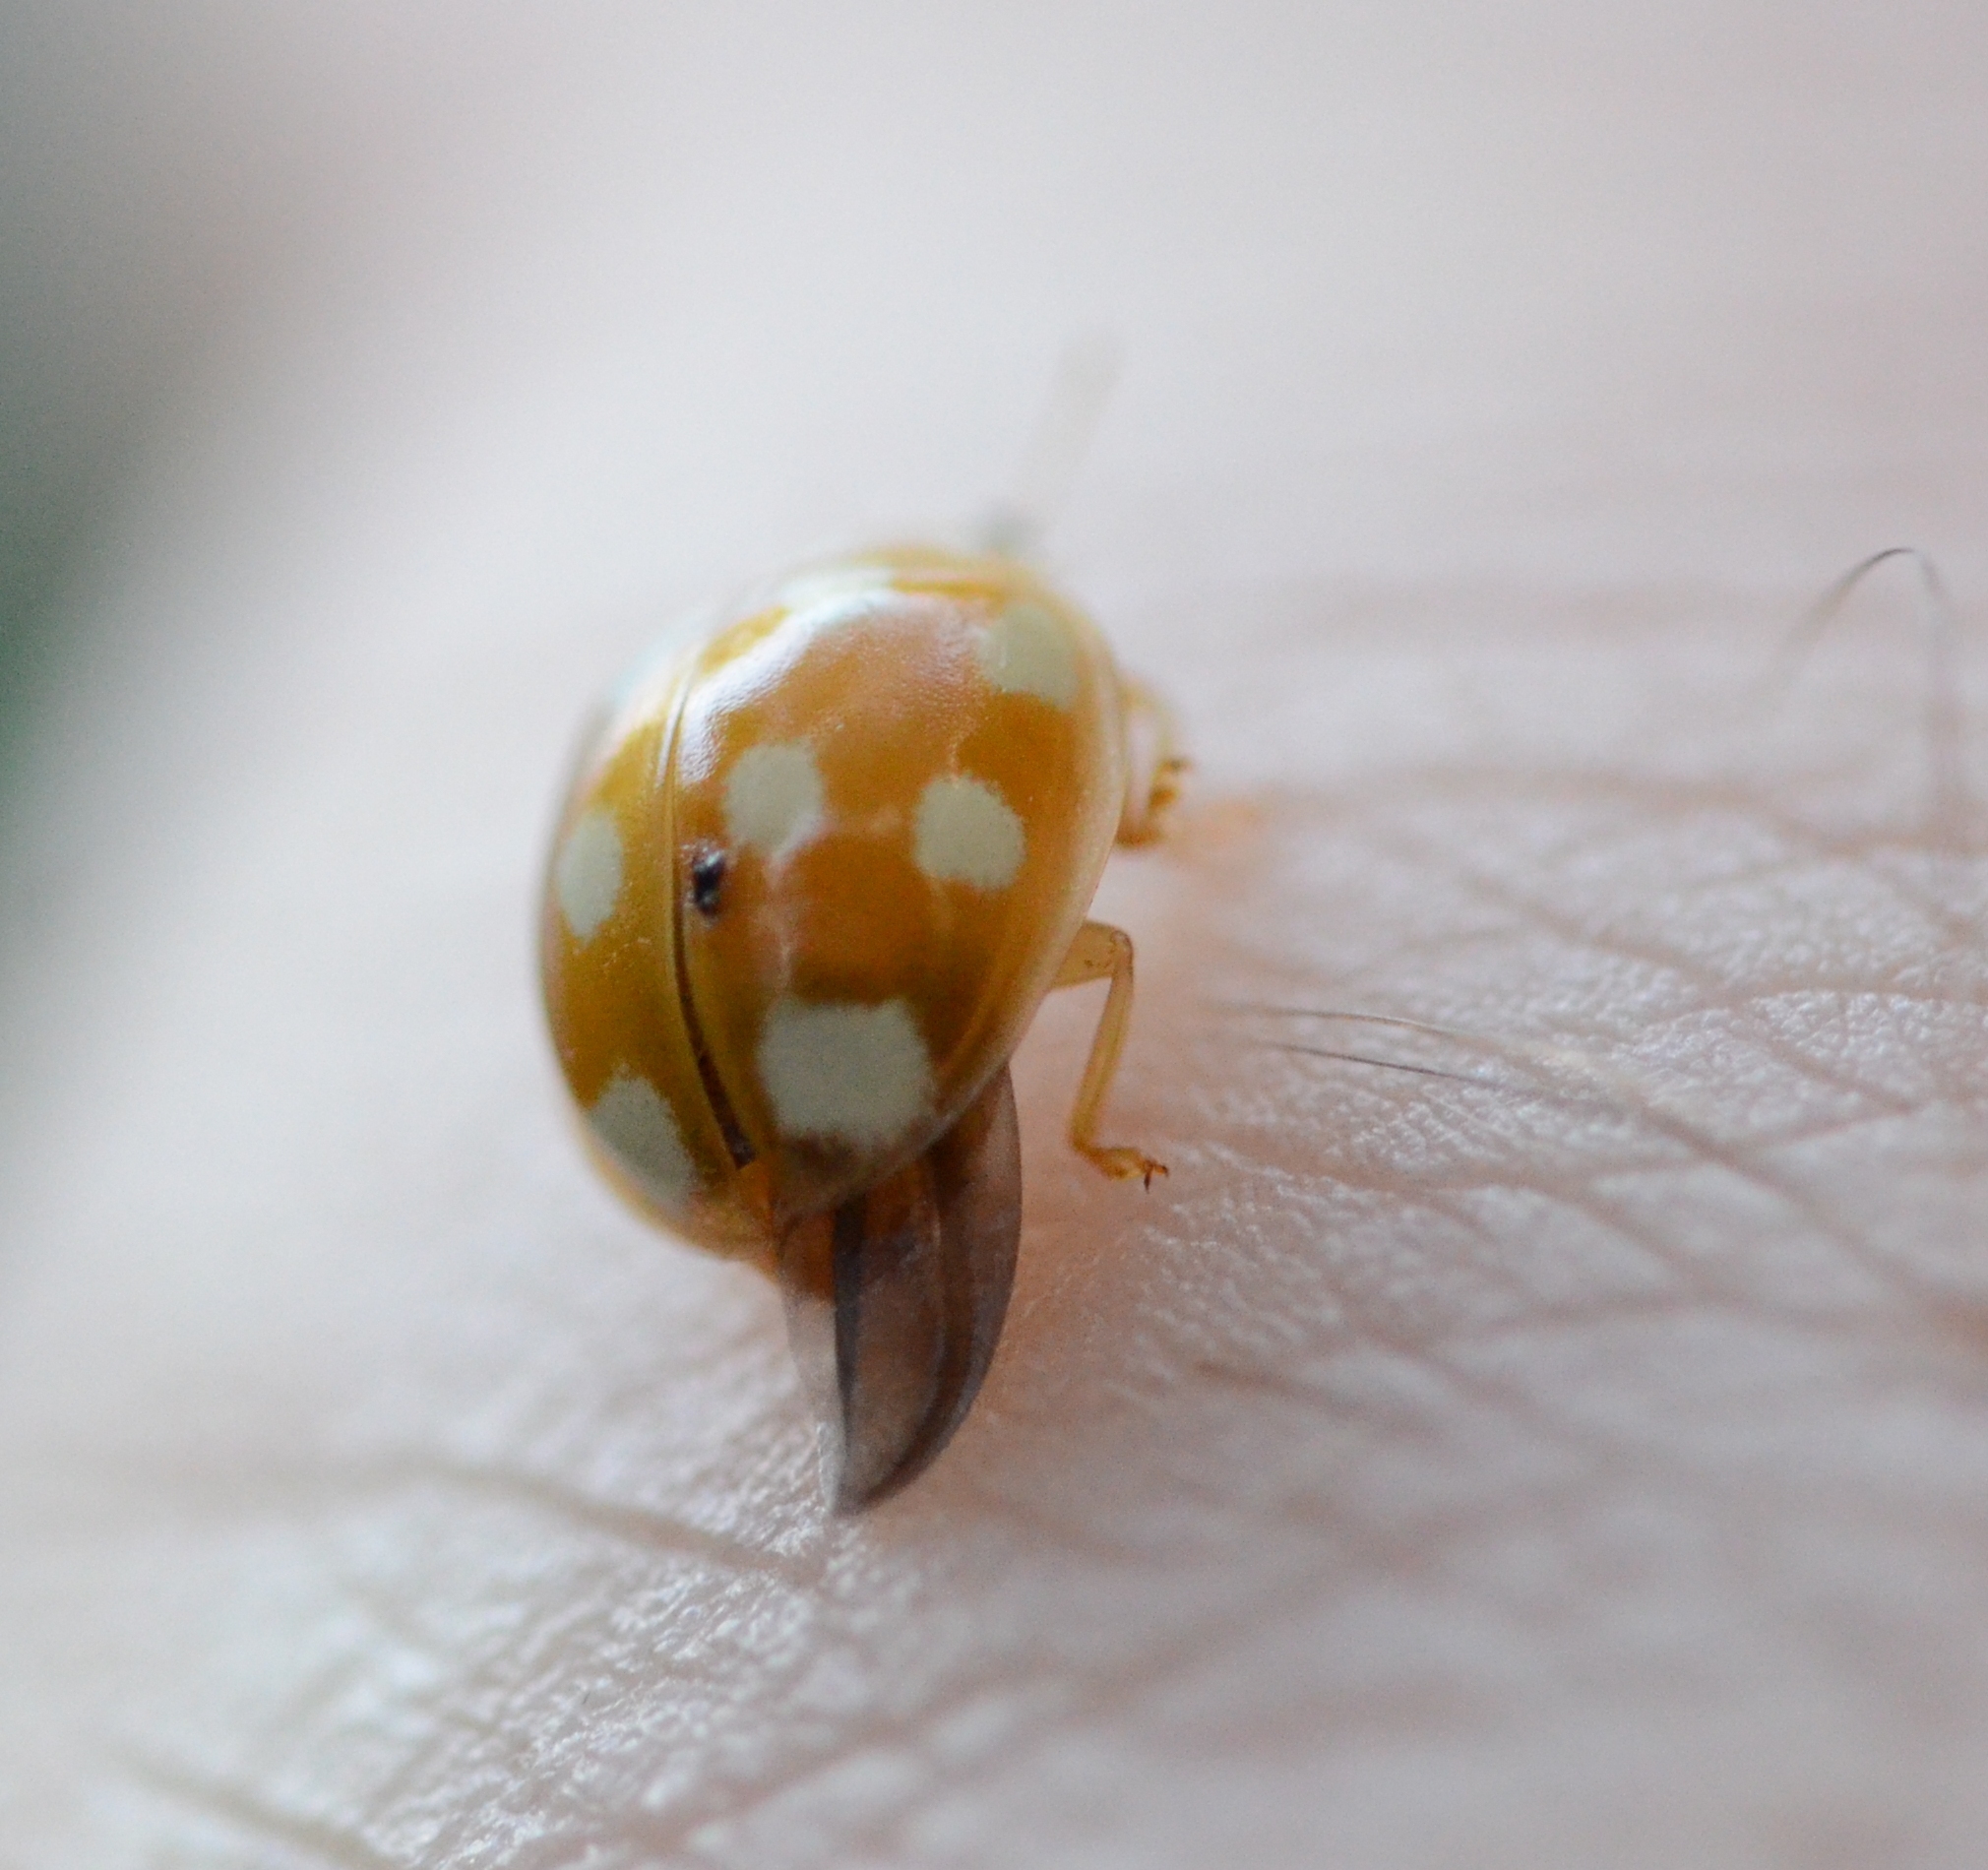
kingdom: Animalia
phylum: Arthropoda
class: Insecta
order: Coleoptera
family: Coccinellidae
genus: Calvia
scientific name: Calvia decemguttata
